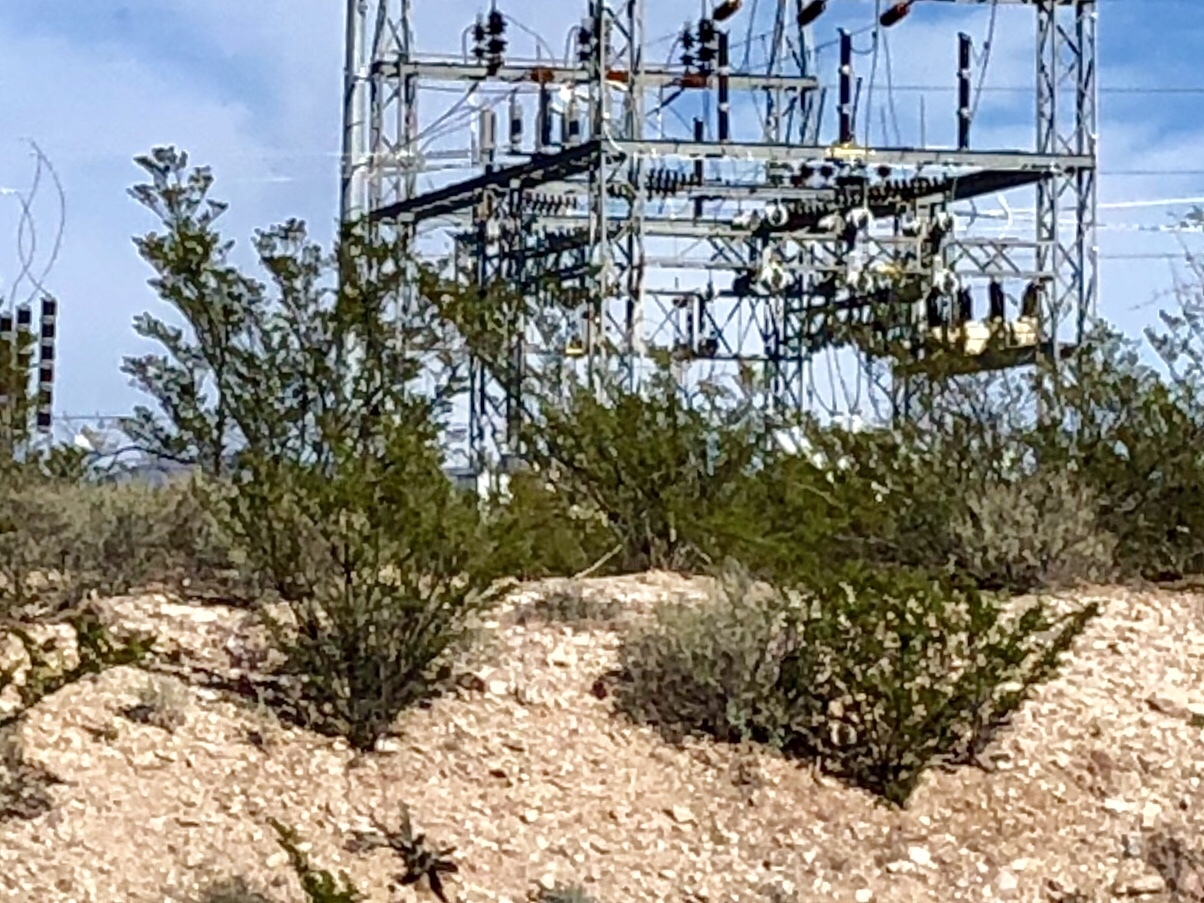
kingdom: Plantae
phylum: Tracheophyta
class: Magnoliopsida
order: Zygophyllales
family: Zygophyllaceae
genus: Larrea
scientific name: Larrea tridentata
